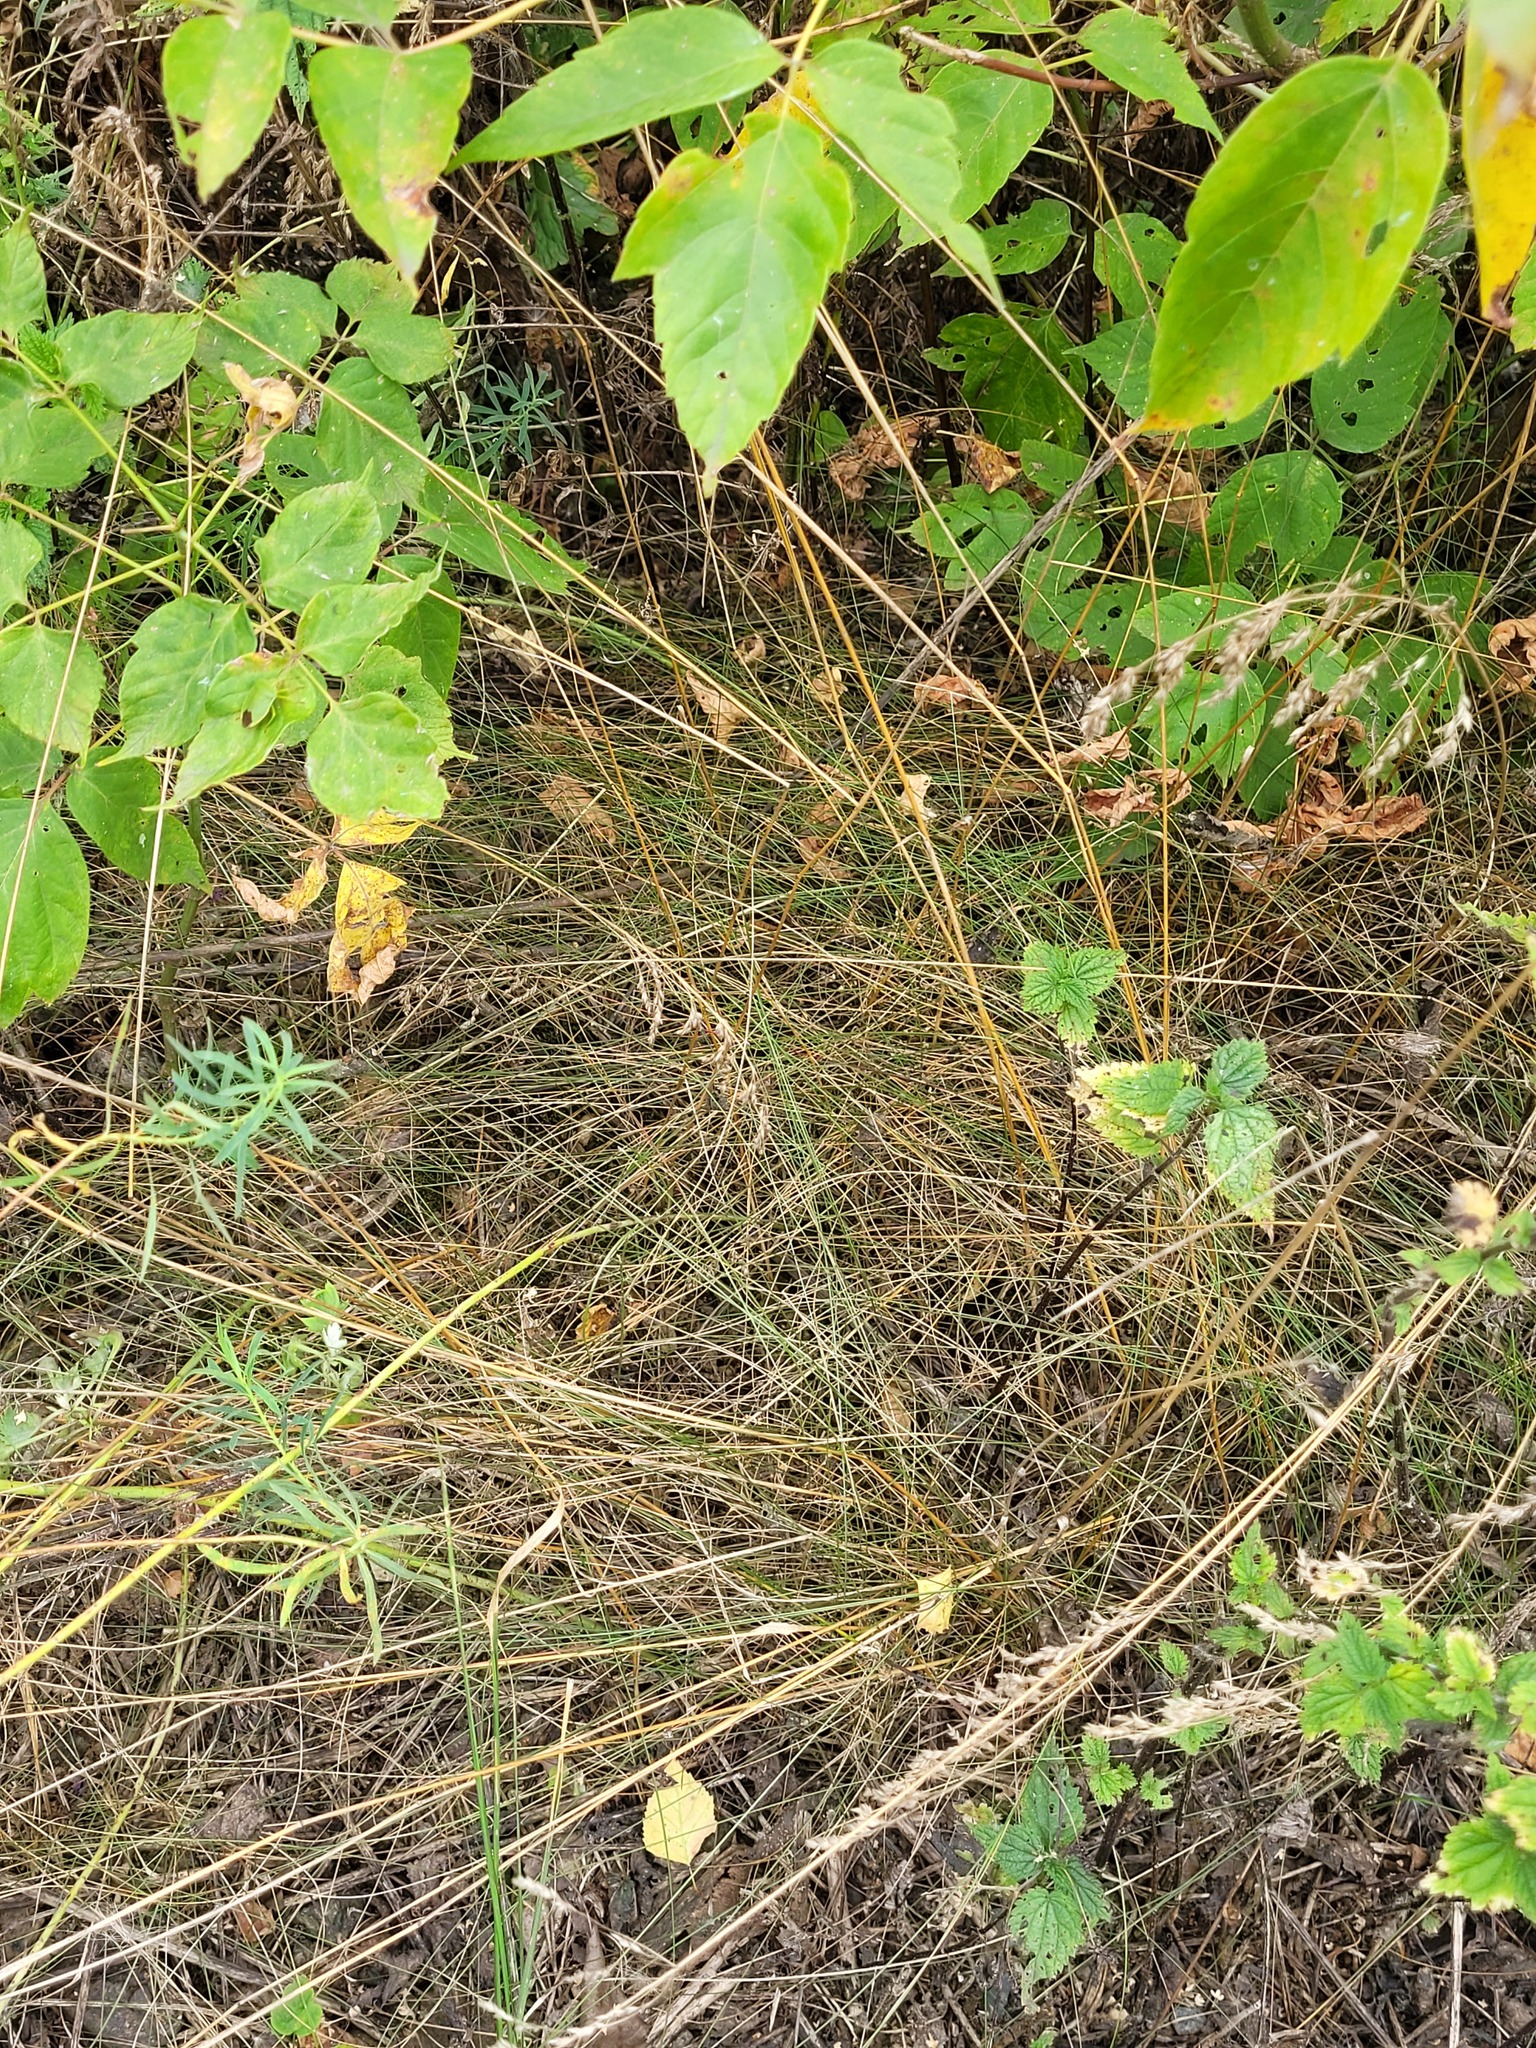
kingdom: Plantae
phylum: Tracheophyta
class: Liliopsida
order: Poales
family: Poaceae
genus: Poa
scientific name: Poa angustifolia
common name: Narrow-leaved meadow-grass
